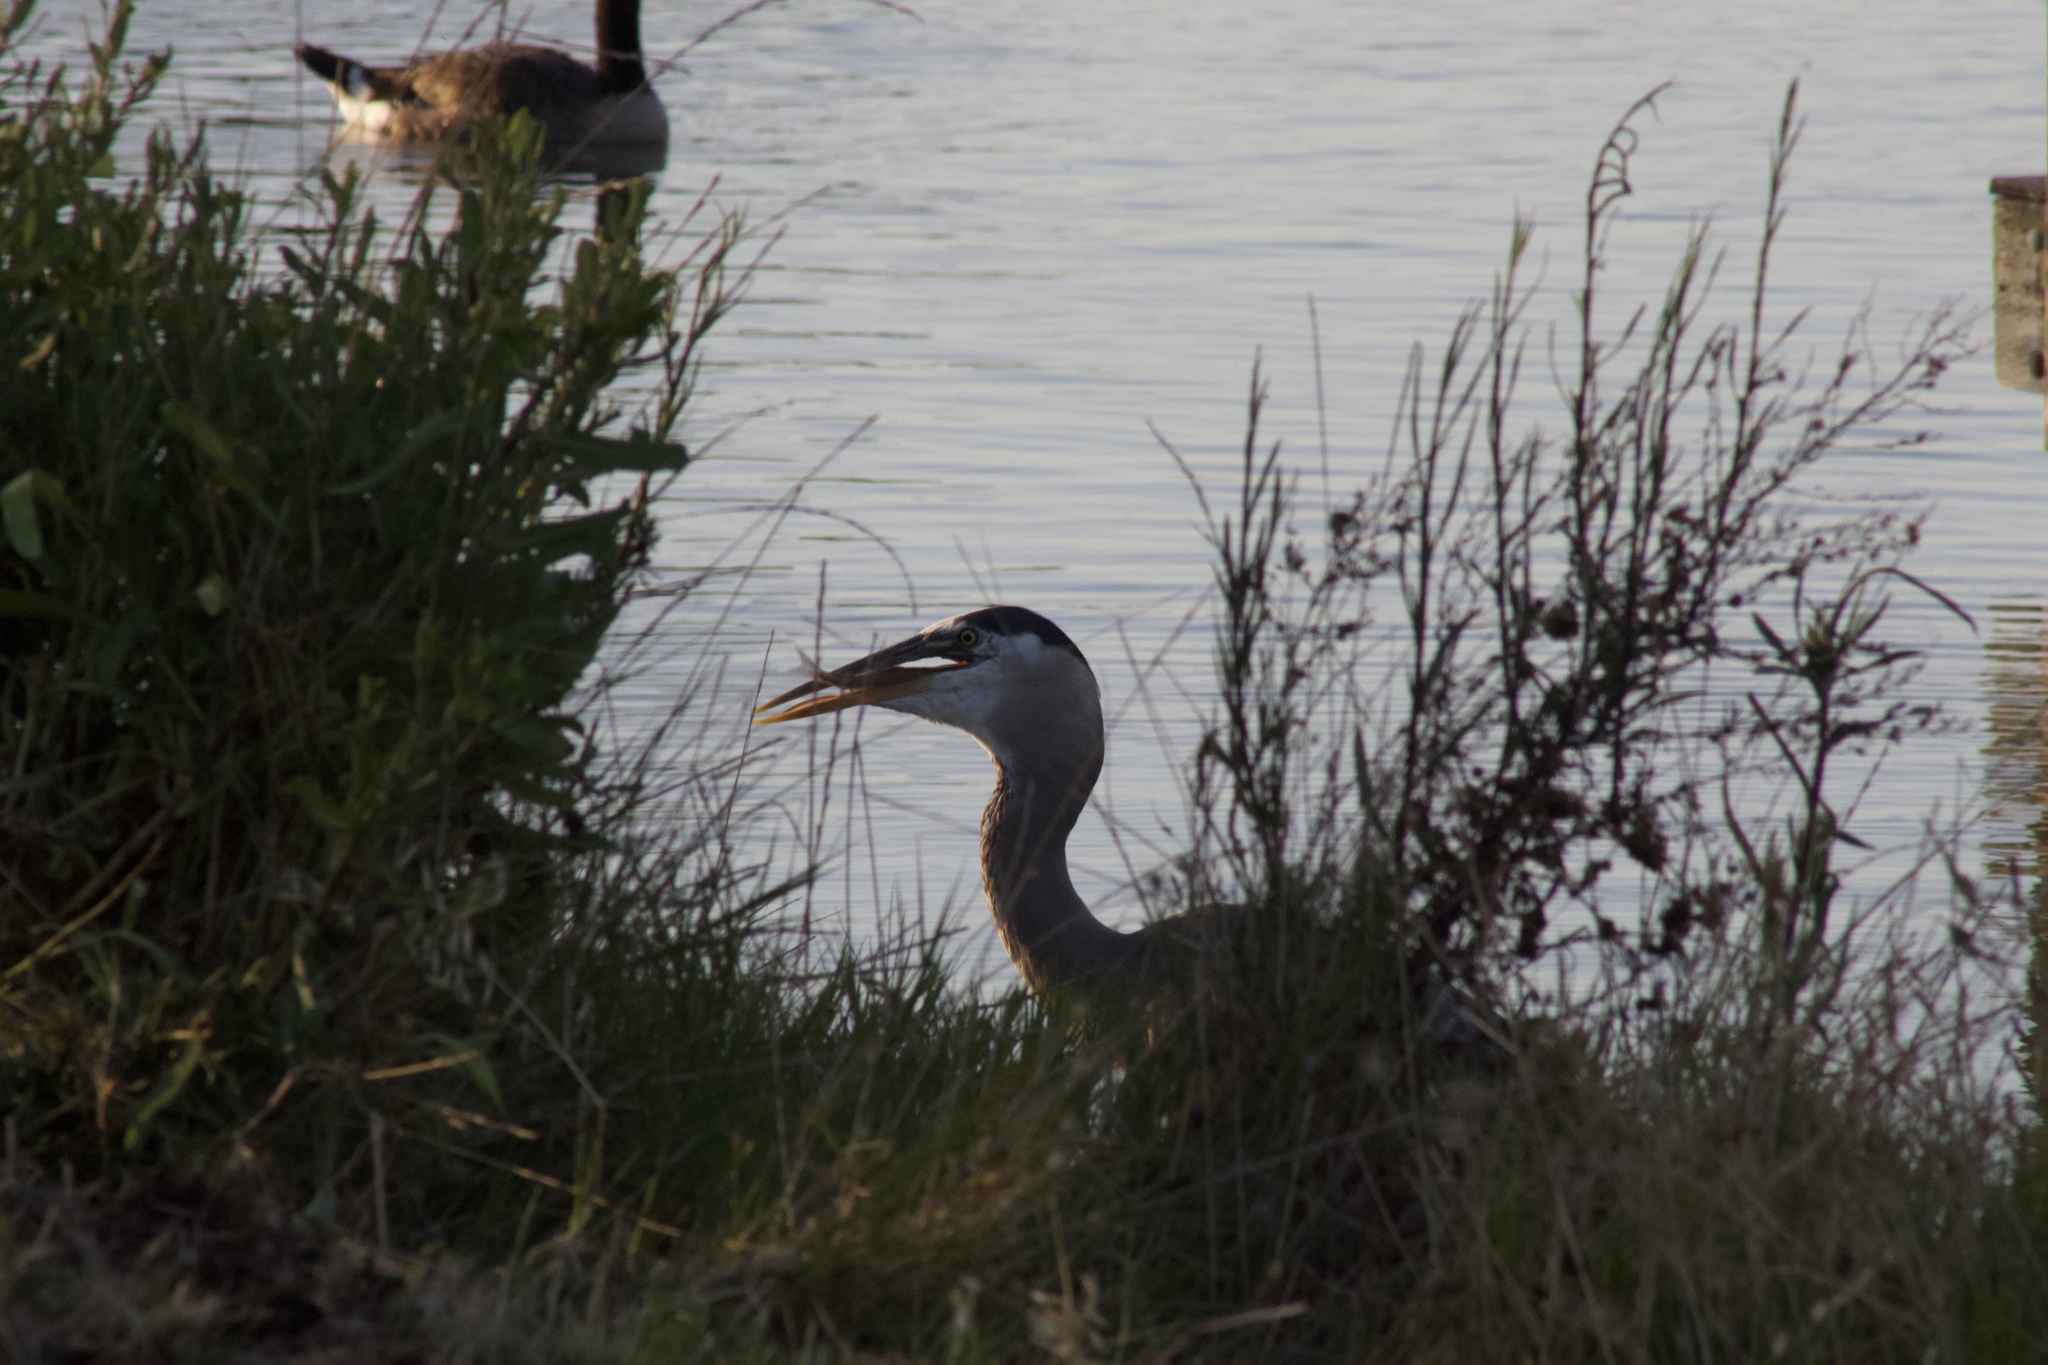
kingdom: Animalia
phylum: Chordata
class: Aves
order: Pelecaniformes
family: Ardeidae
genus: Ardea
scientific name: Ardea herodias
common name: Great blue heron
